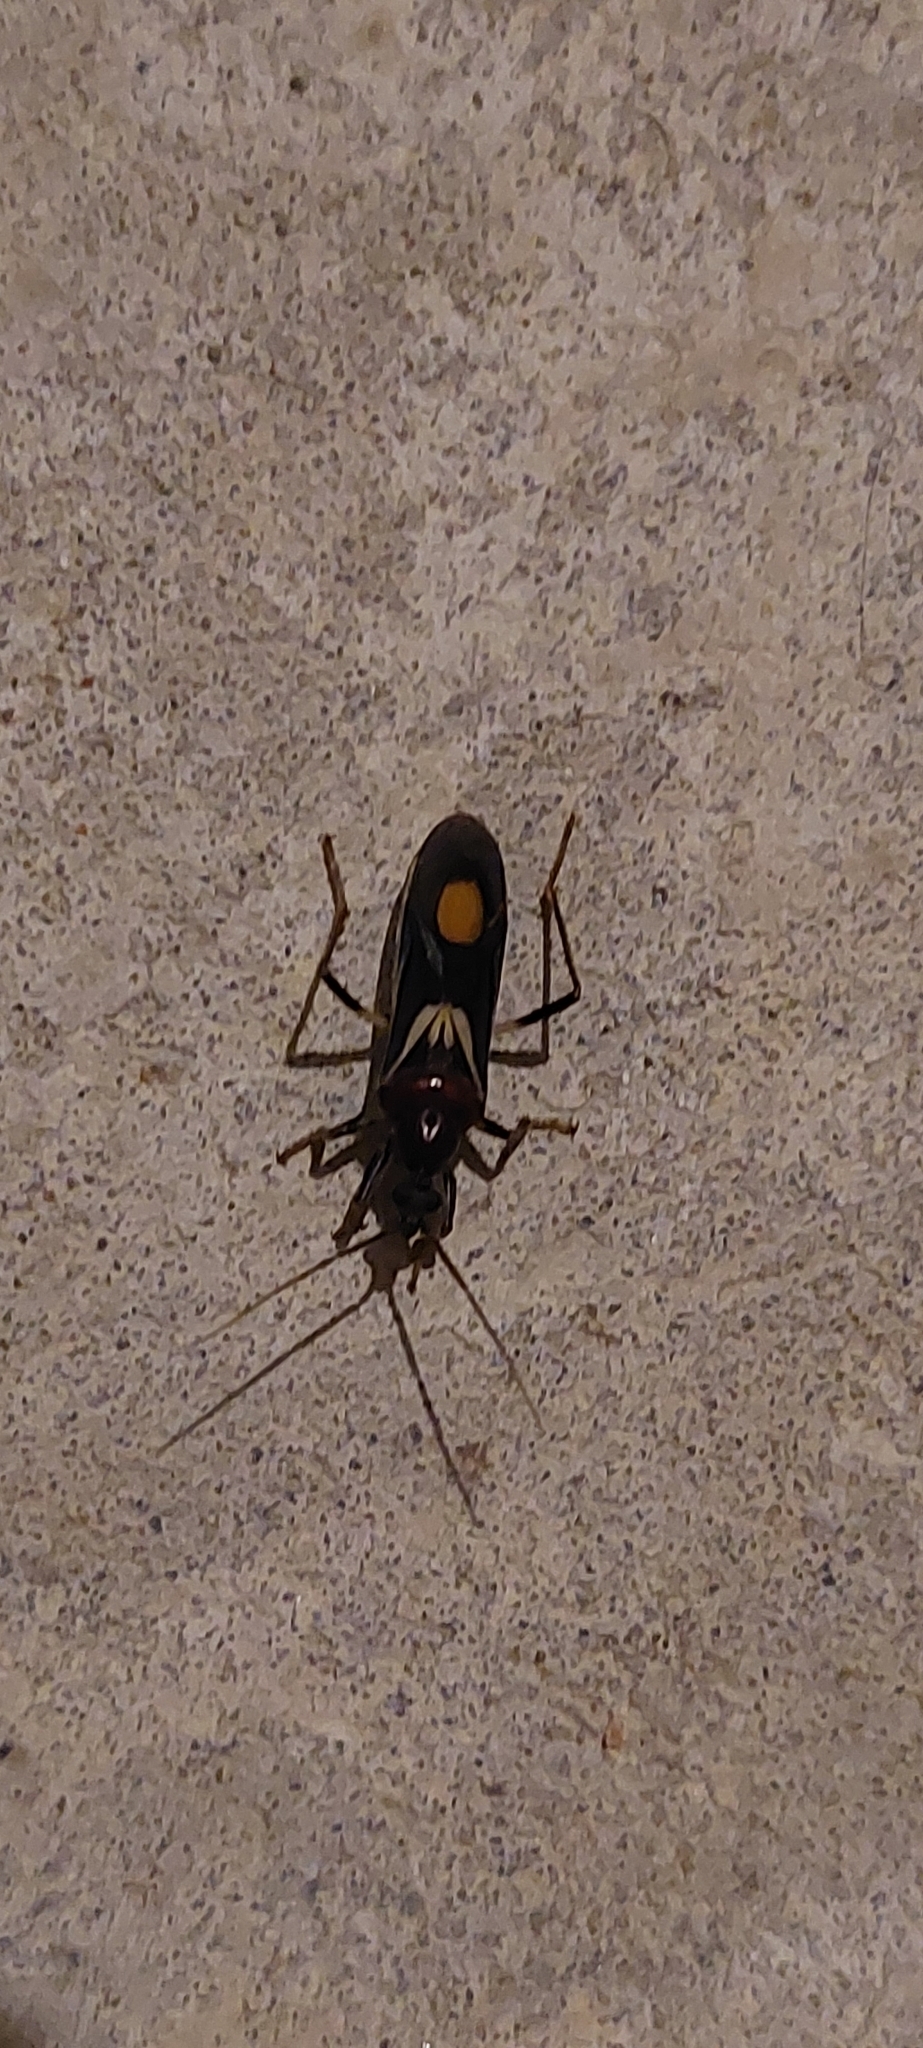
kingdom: Animalia
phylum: Arthropoda
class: Insecta
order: Hemiptera
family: Reduviidae
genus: Rasahus
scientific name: Rasahus hamatus
